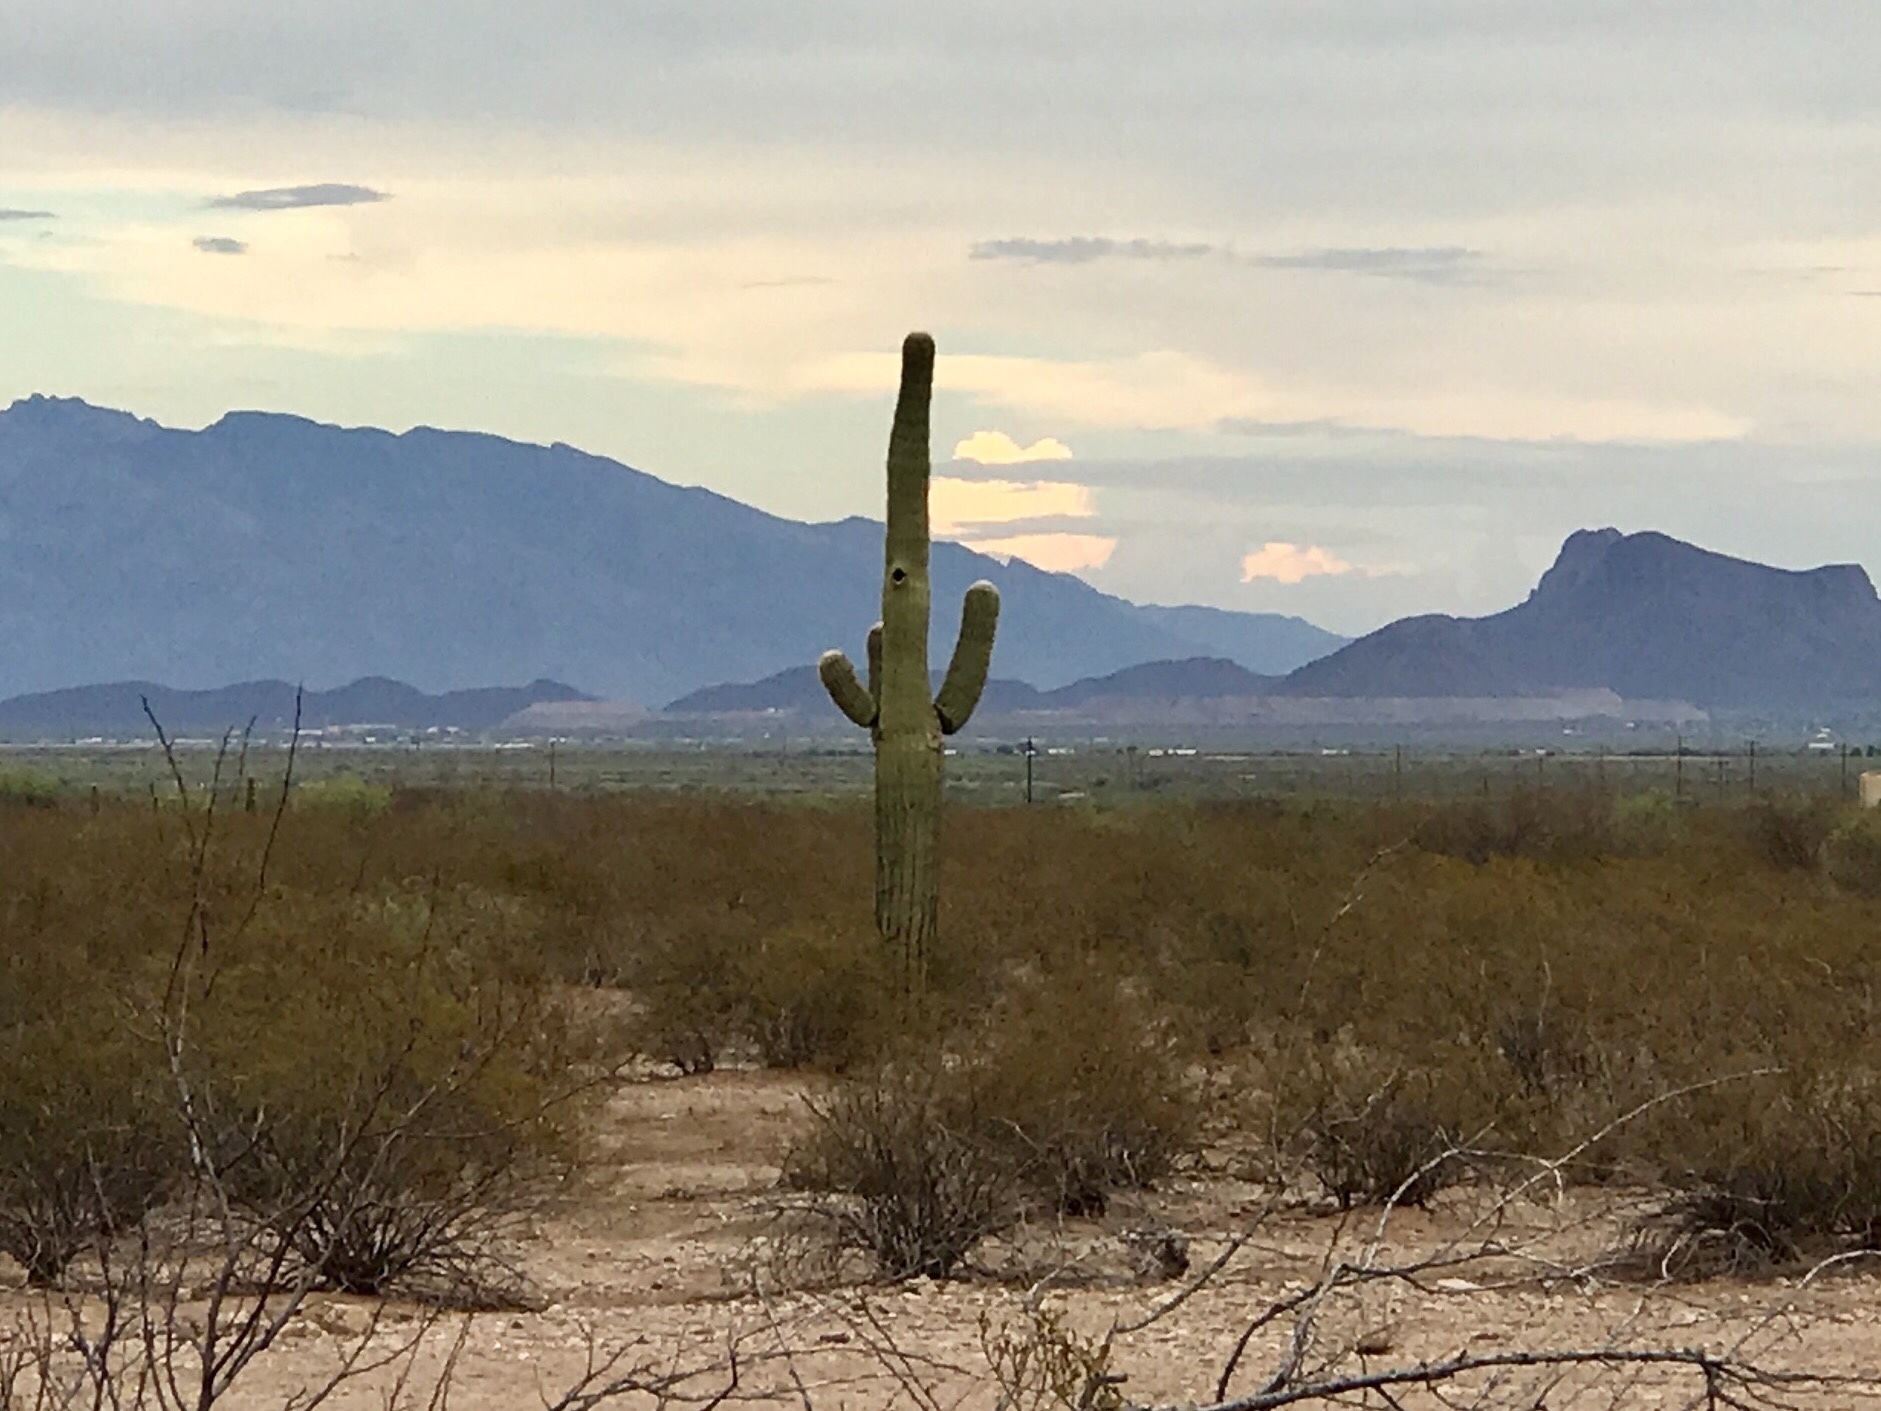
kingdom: Plantae
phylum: Tracheophyta
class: Magnoliopsida
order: Caryophyllales
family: Cactaceae
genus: Carnegiea
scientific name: Carnegiea gigantea
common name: Saguaro
